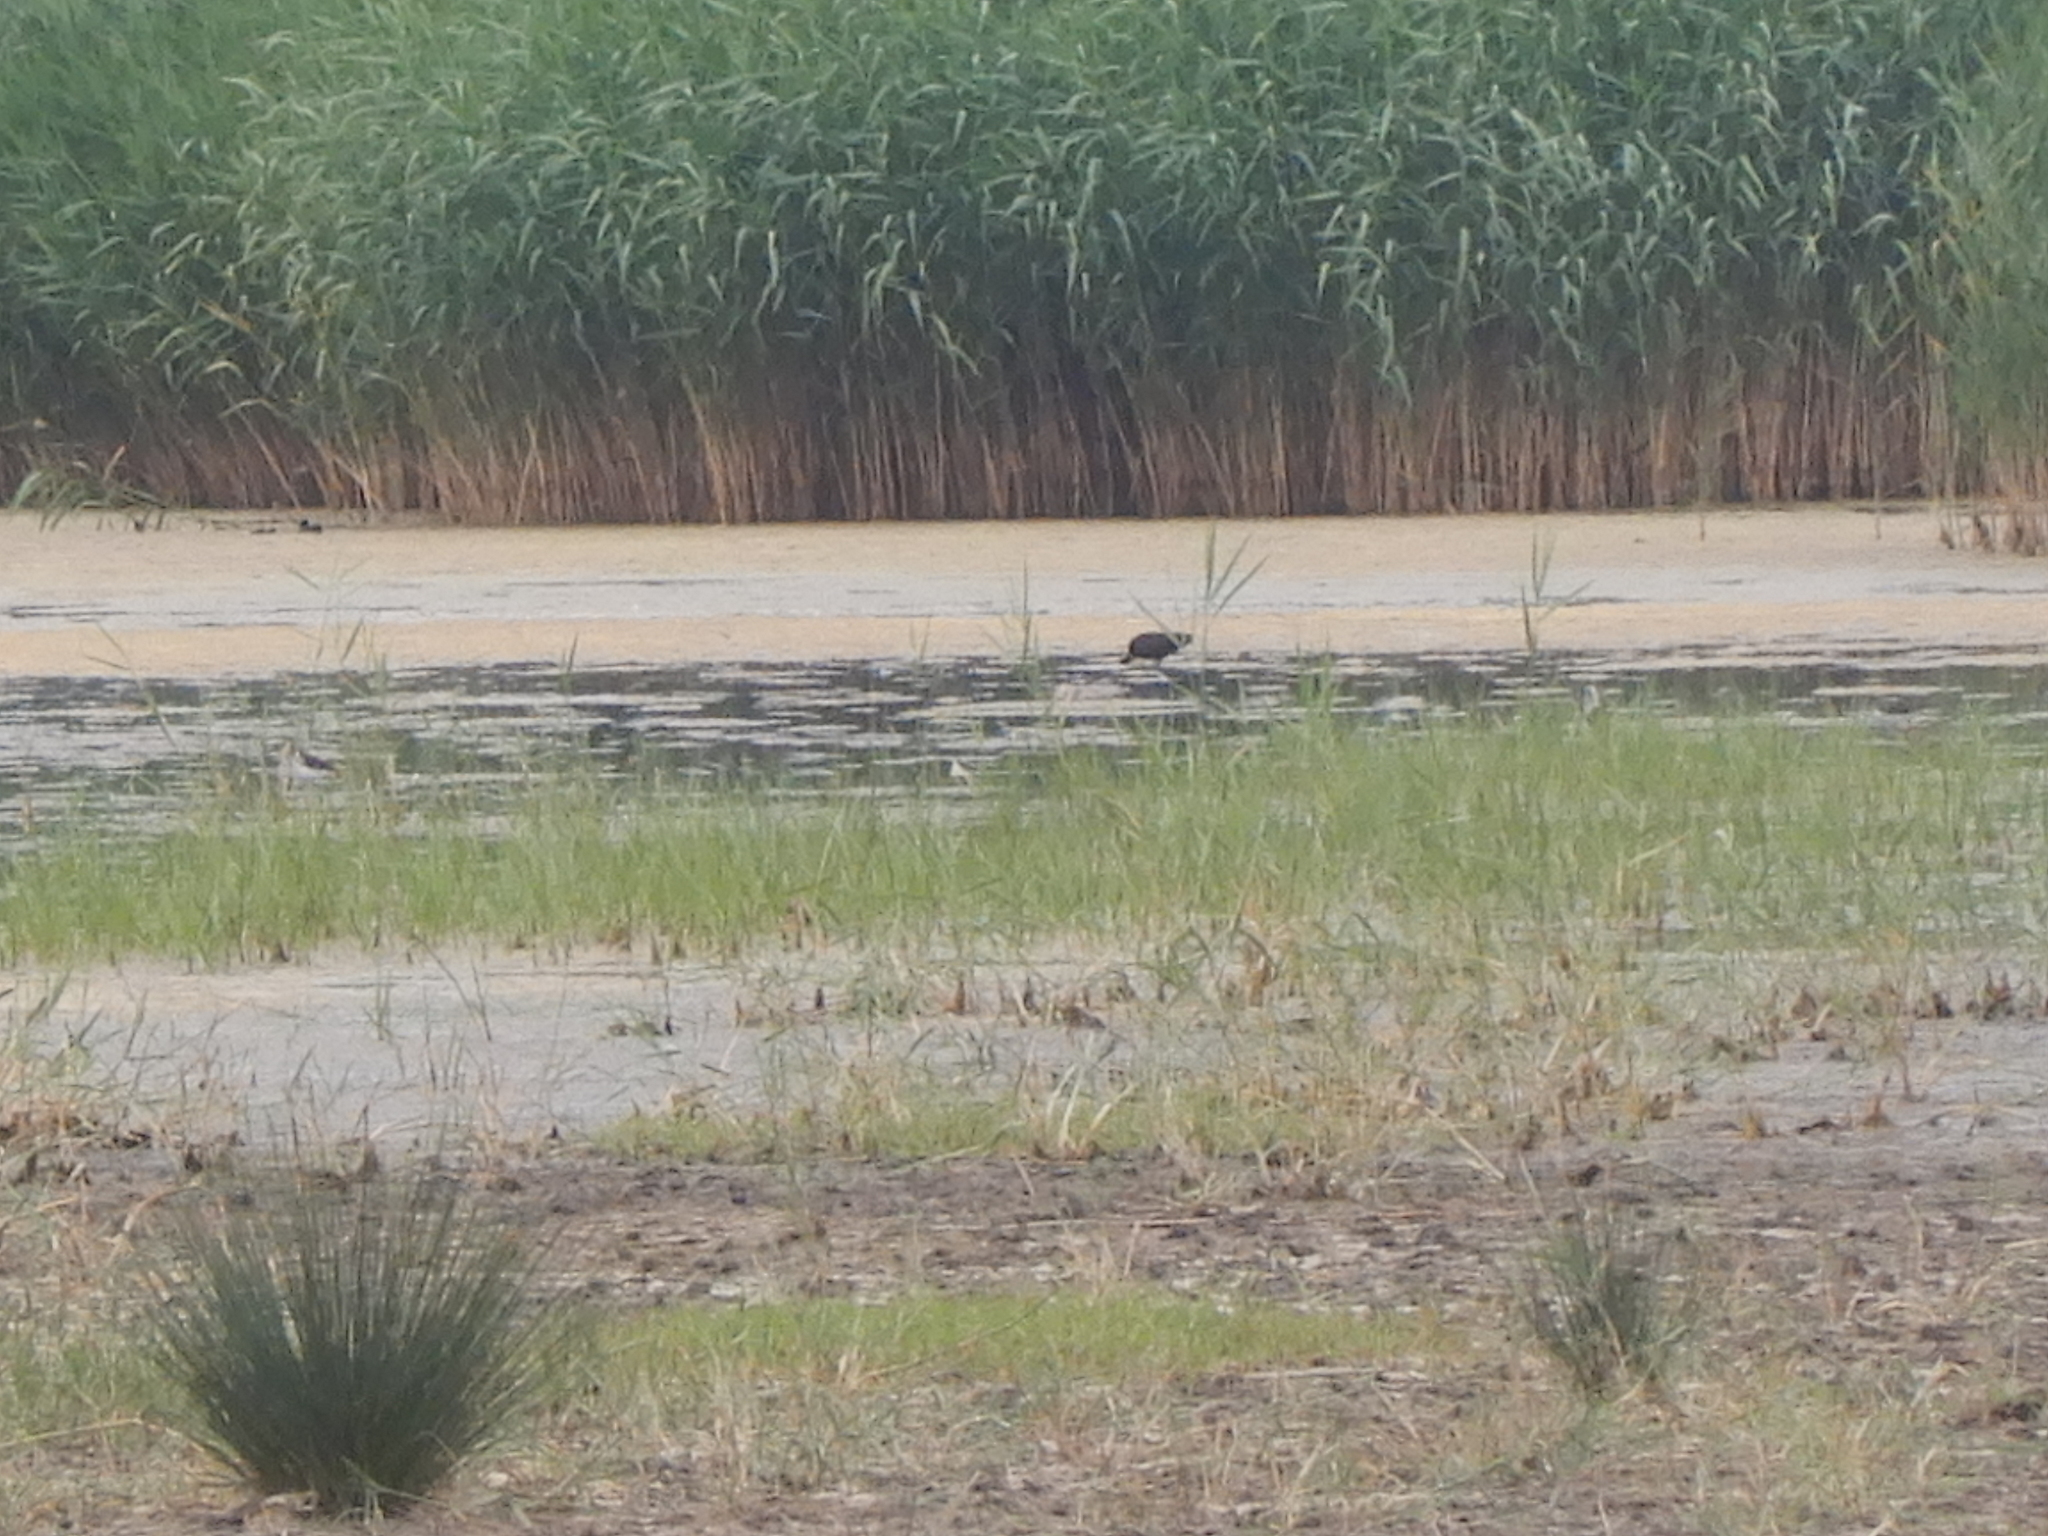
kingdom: Animalia
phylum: Chordata
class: Aves
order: Pelecaniformes
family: Threskiornithidae
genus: Plegadis
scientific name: Plegadis falcinellus
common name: Glossy ibis
